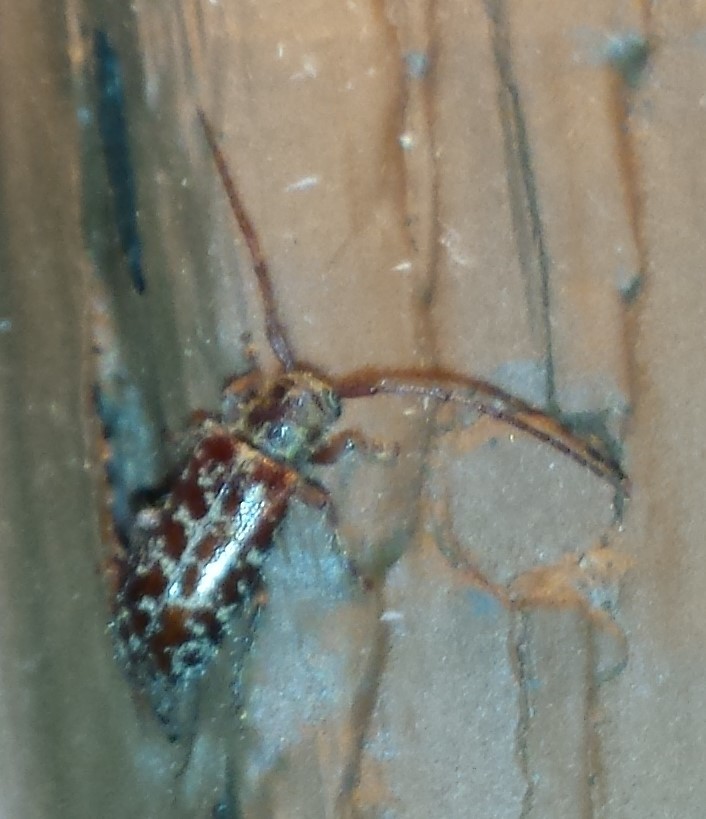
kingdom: Animalia
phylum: Arthropoda
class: Insecta
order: Coleoptera
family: Cerambycidae
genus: Eupogonius
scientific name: Eupogonius tomentosus
